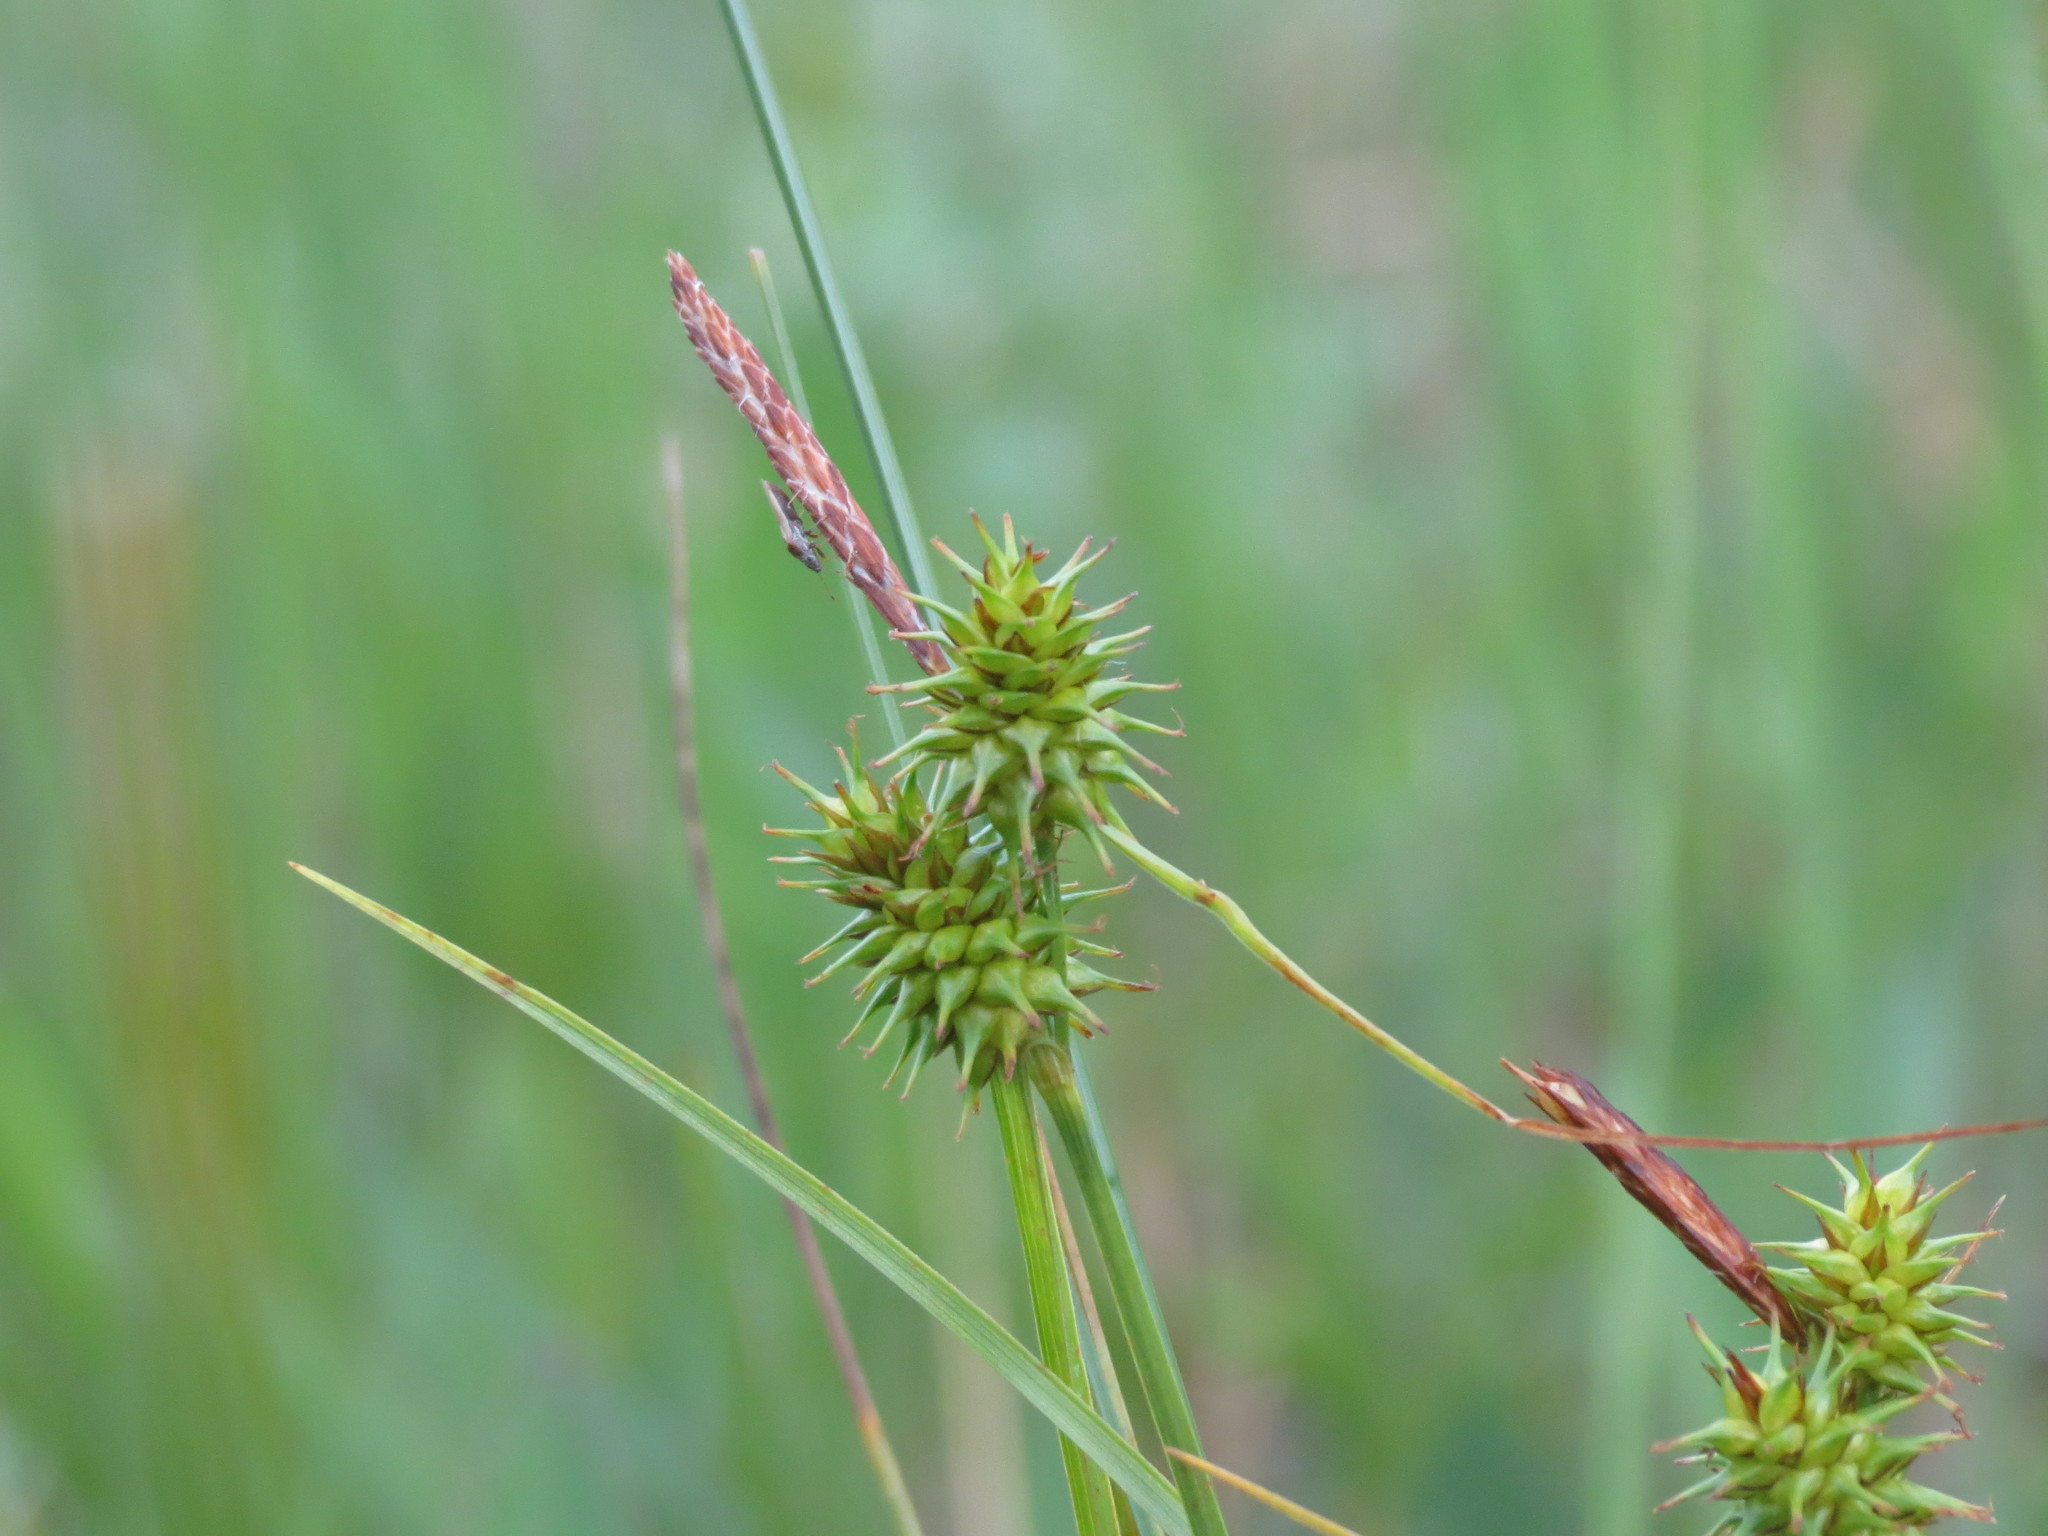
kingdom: Plantae
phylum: Tracheophyta
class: Liliopsida
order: Poales
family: Cyperaceae
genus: Carex
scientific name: Carex flava
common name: Large yellow-sedge
